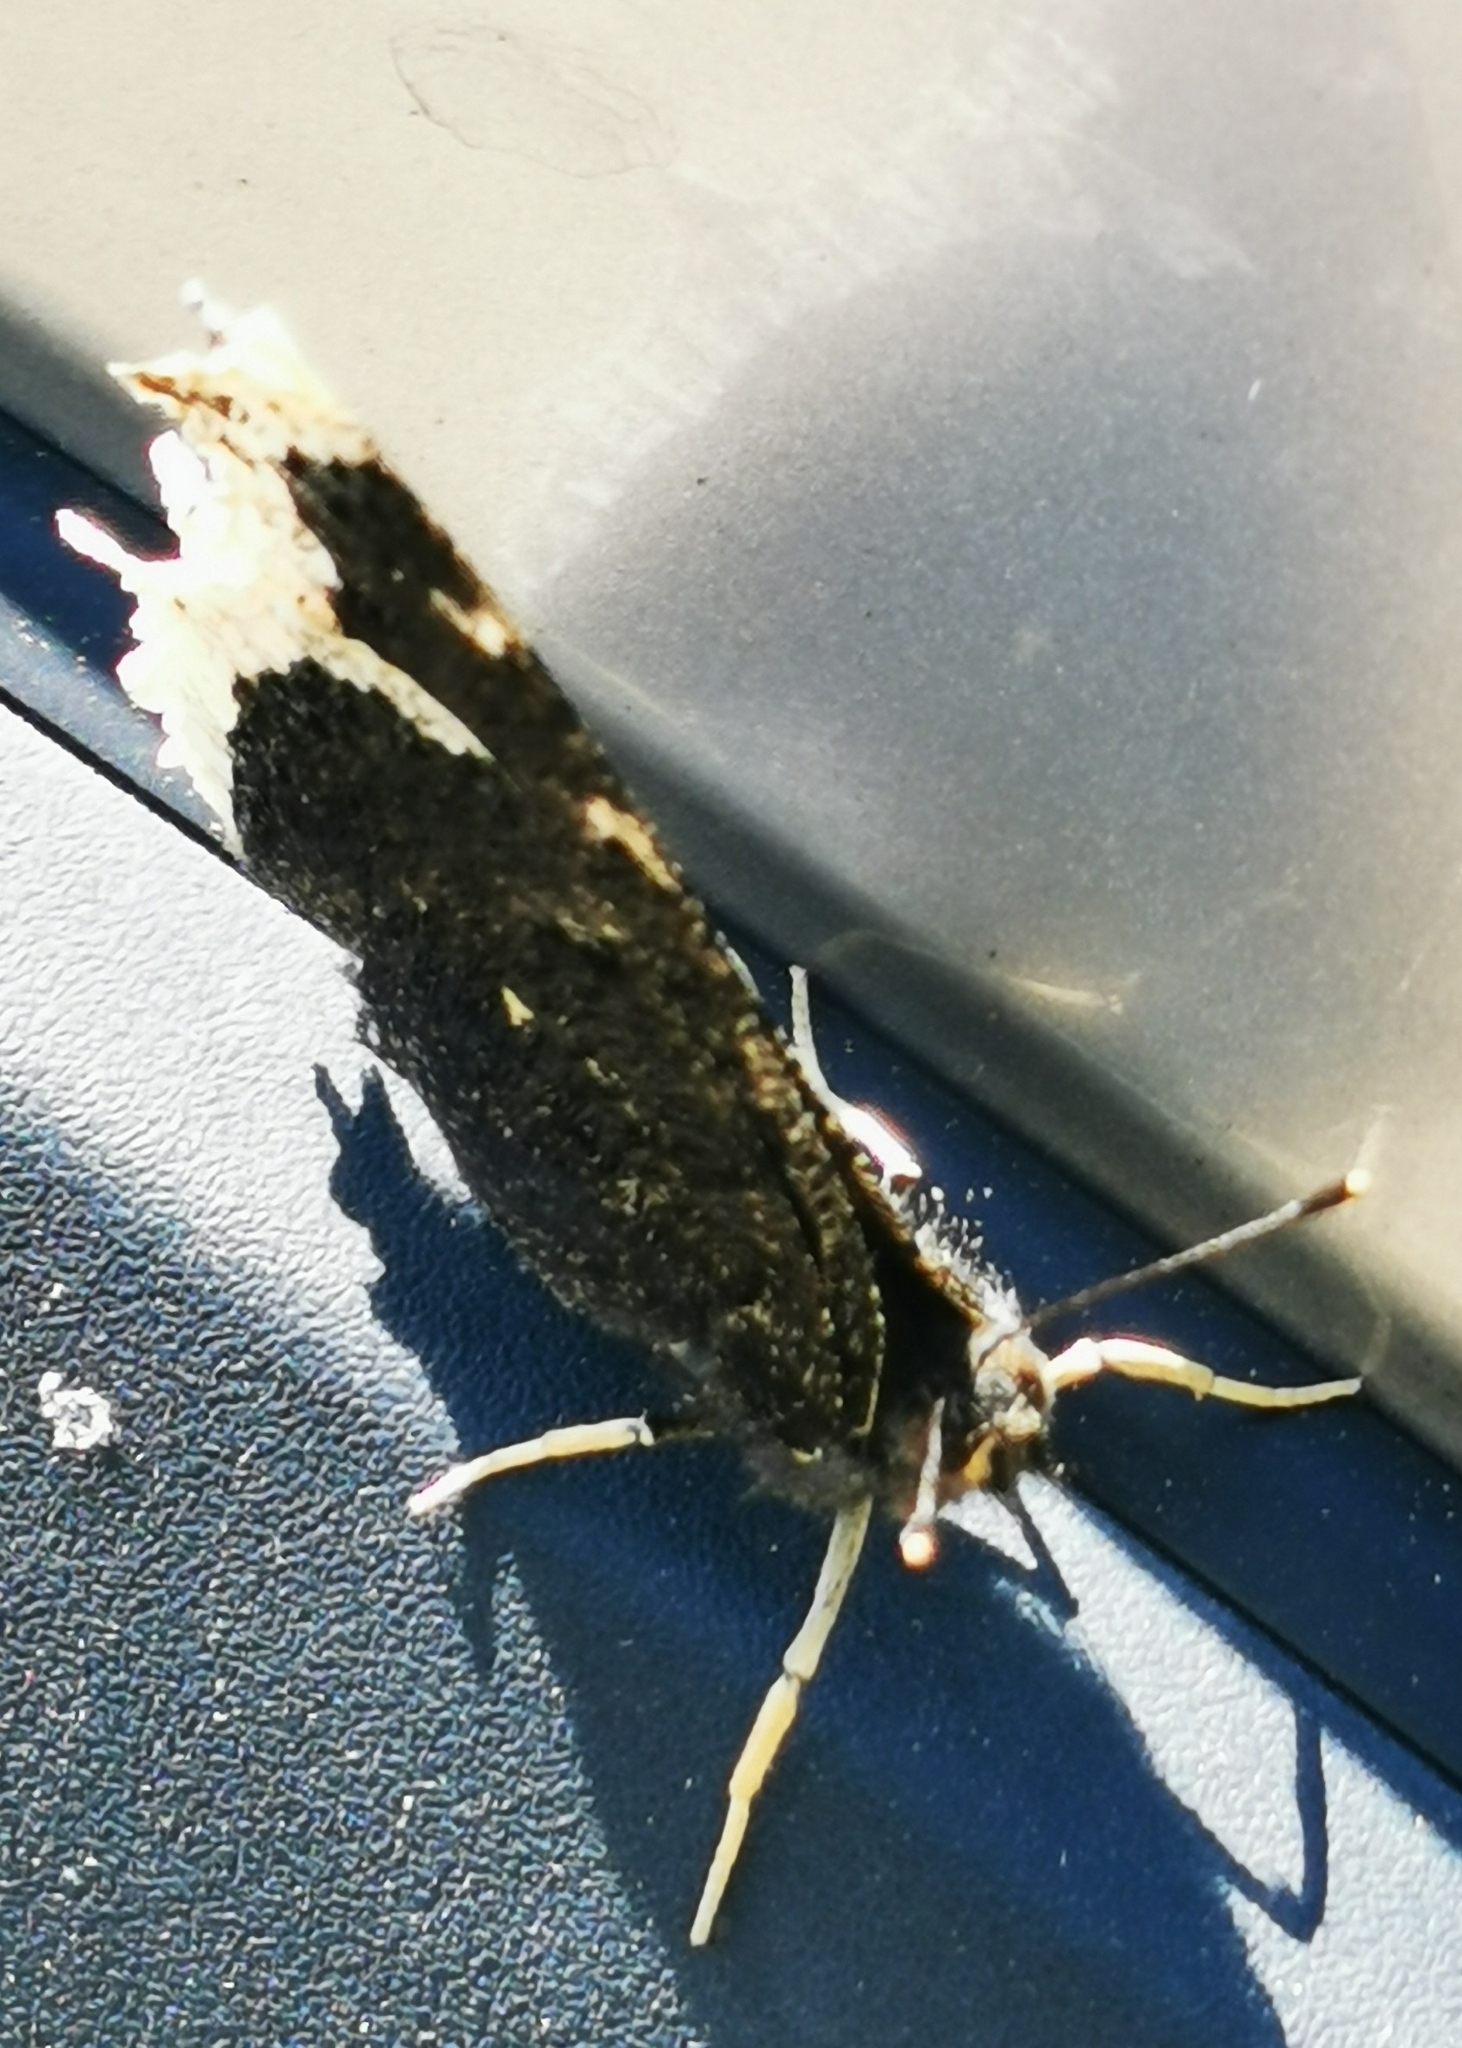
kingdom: Animalia
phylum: Arthropoda
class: Insecta
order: Lepidoptera
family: Nymphalidae
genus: Nymphalis
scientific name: Nymphalis antiopa
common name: Camberwell beauty
